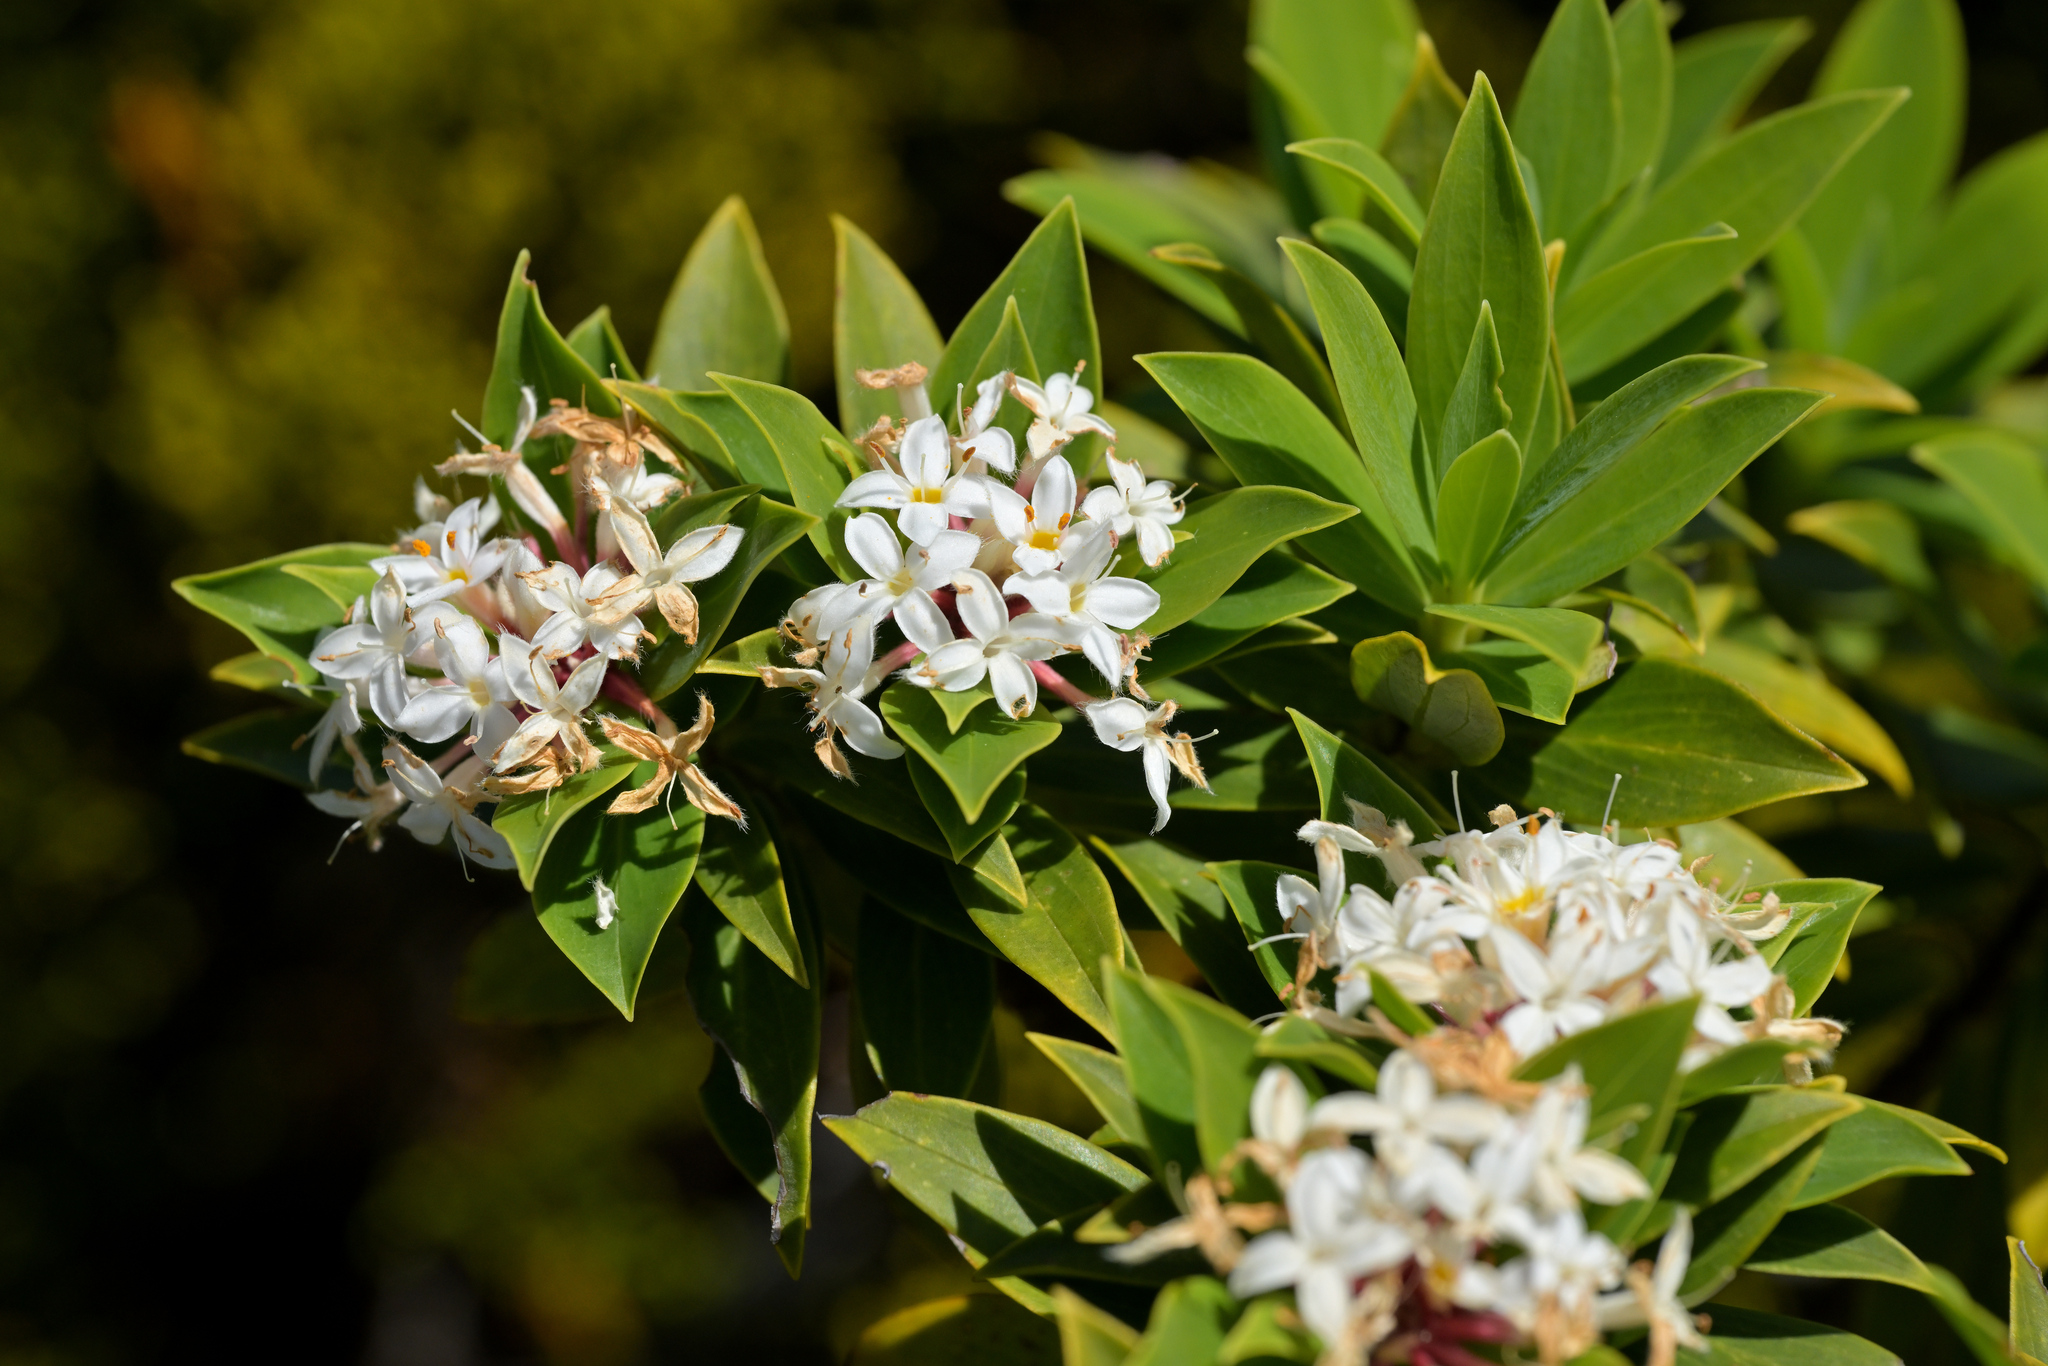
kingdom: Plantae
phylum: Tracheophyta
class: Magnoliopsida
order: Malvales
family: Thymelaeaceae
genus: Pimelea
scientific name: Pimelea longifolia
